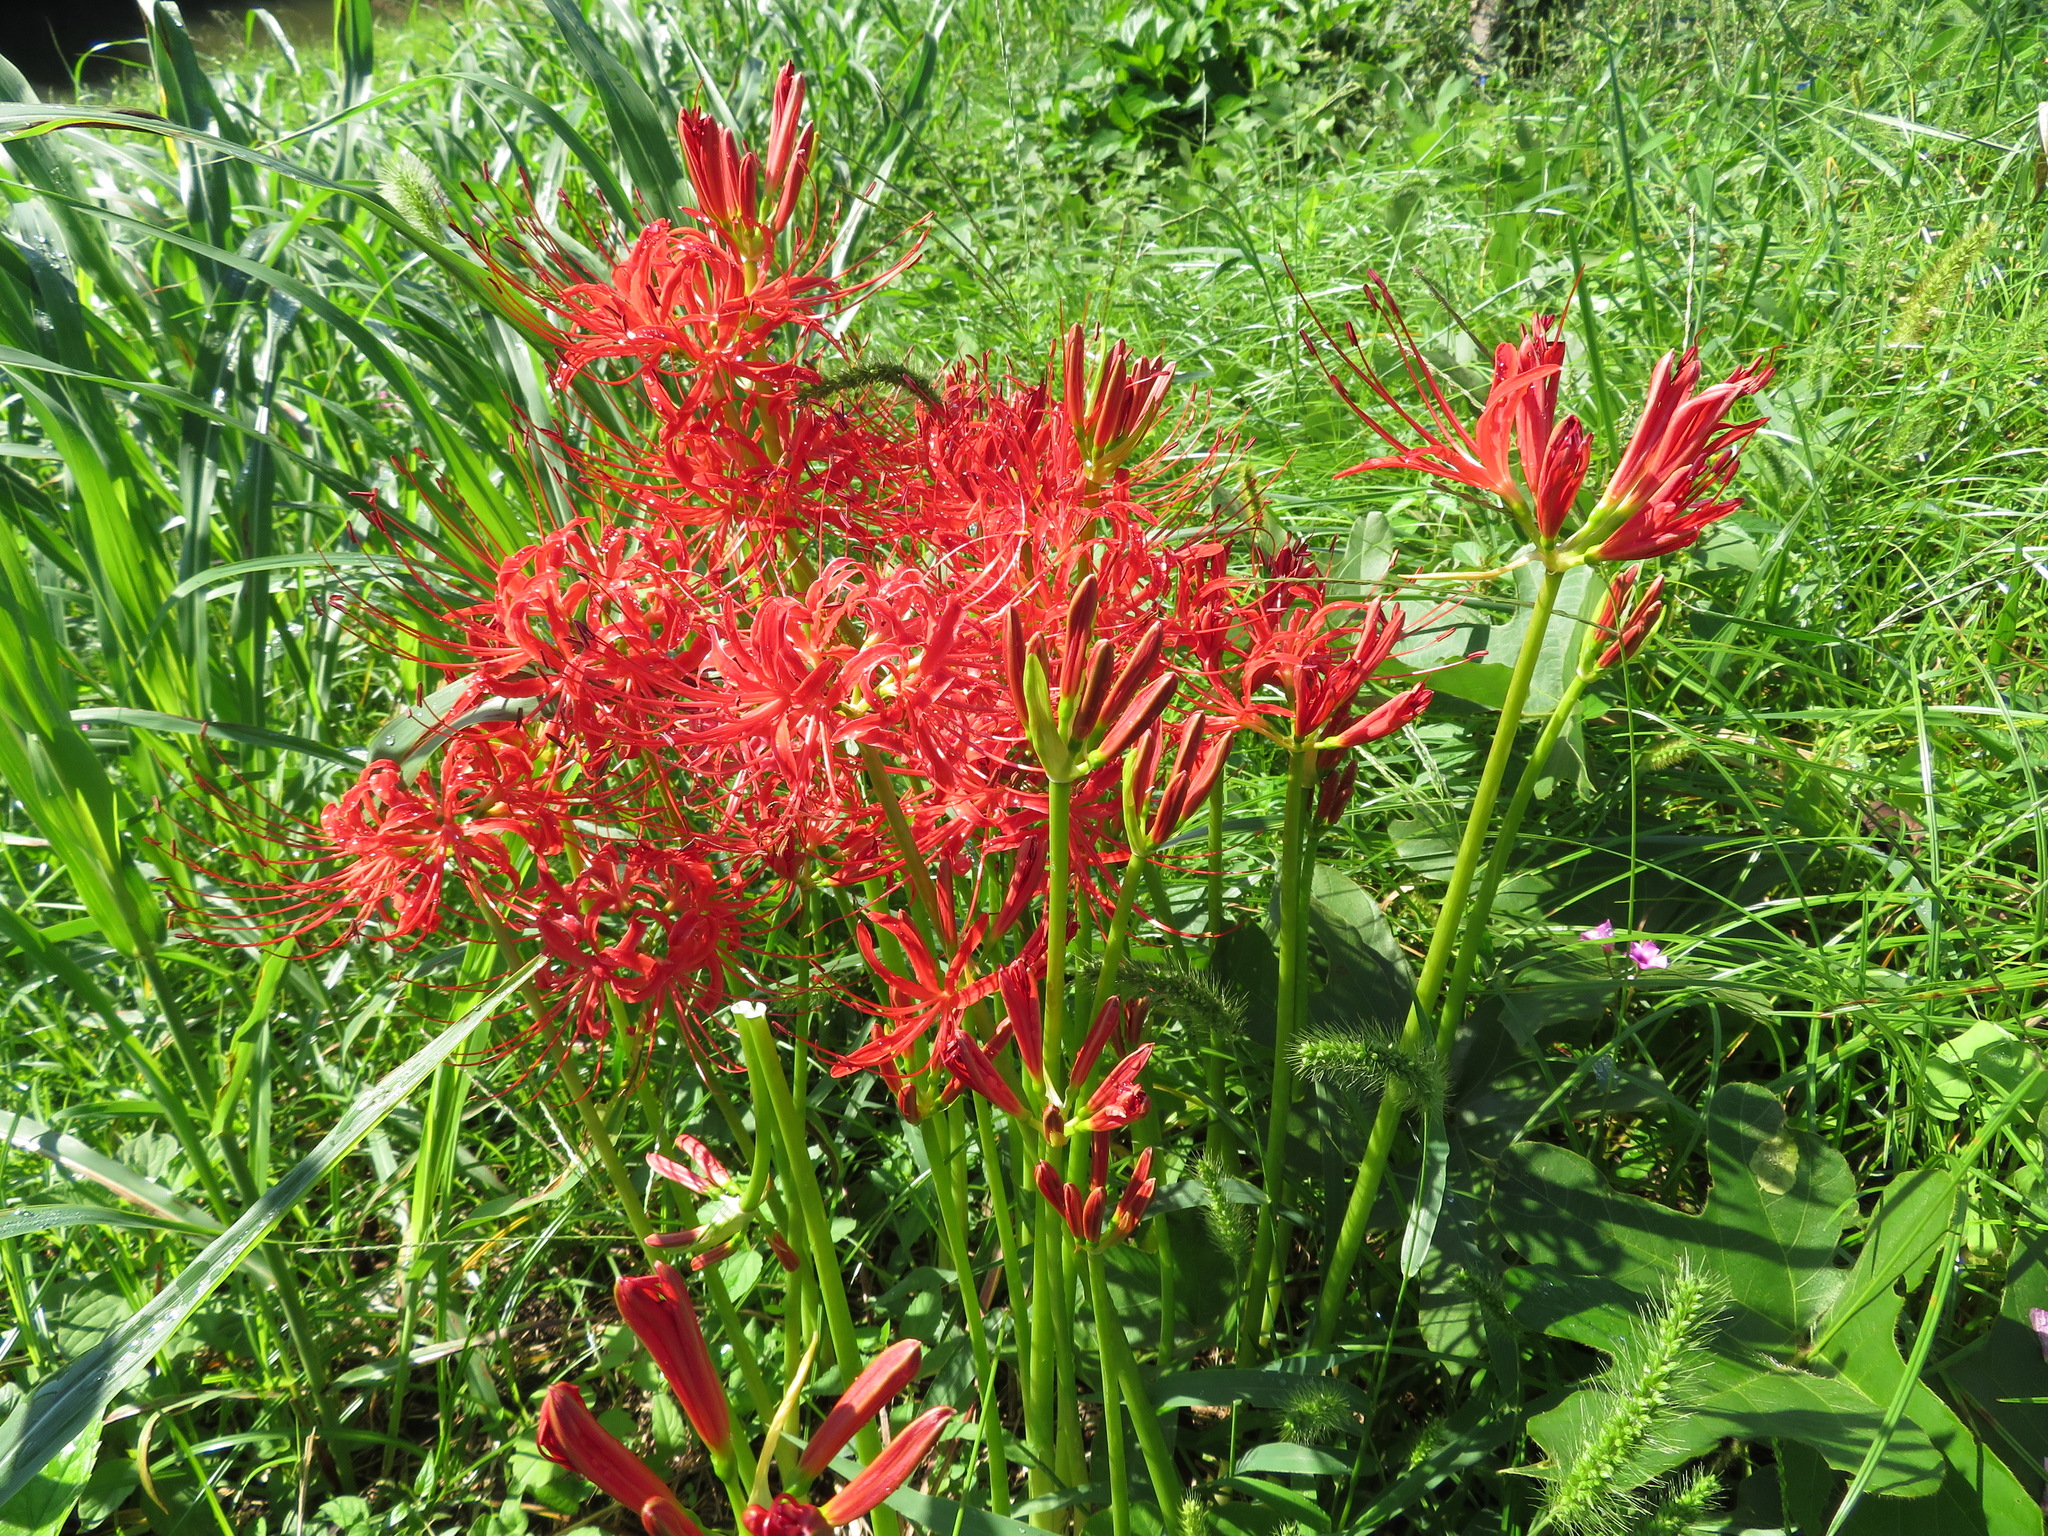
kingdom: Plantae
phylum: Tracheophyta
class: Liliopsida
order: Asparagales
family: Amaryllidaceae
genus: Lycoris
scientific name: Lycoris radiata
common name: Red spider lily
